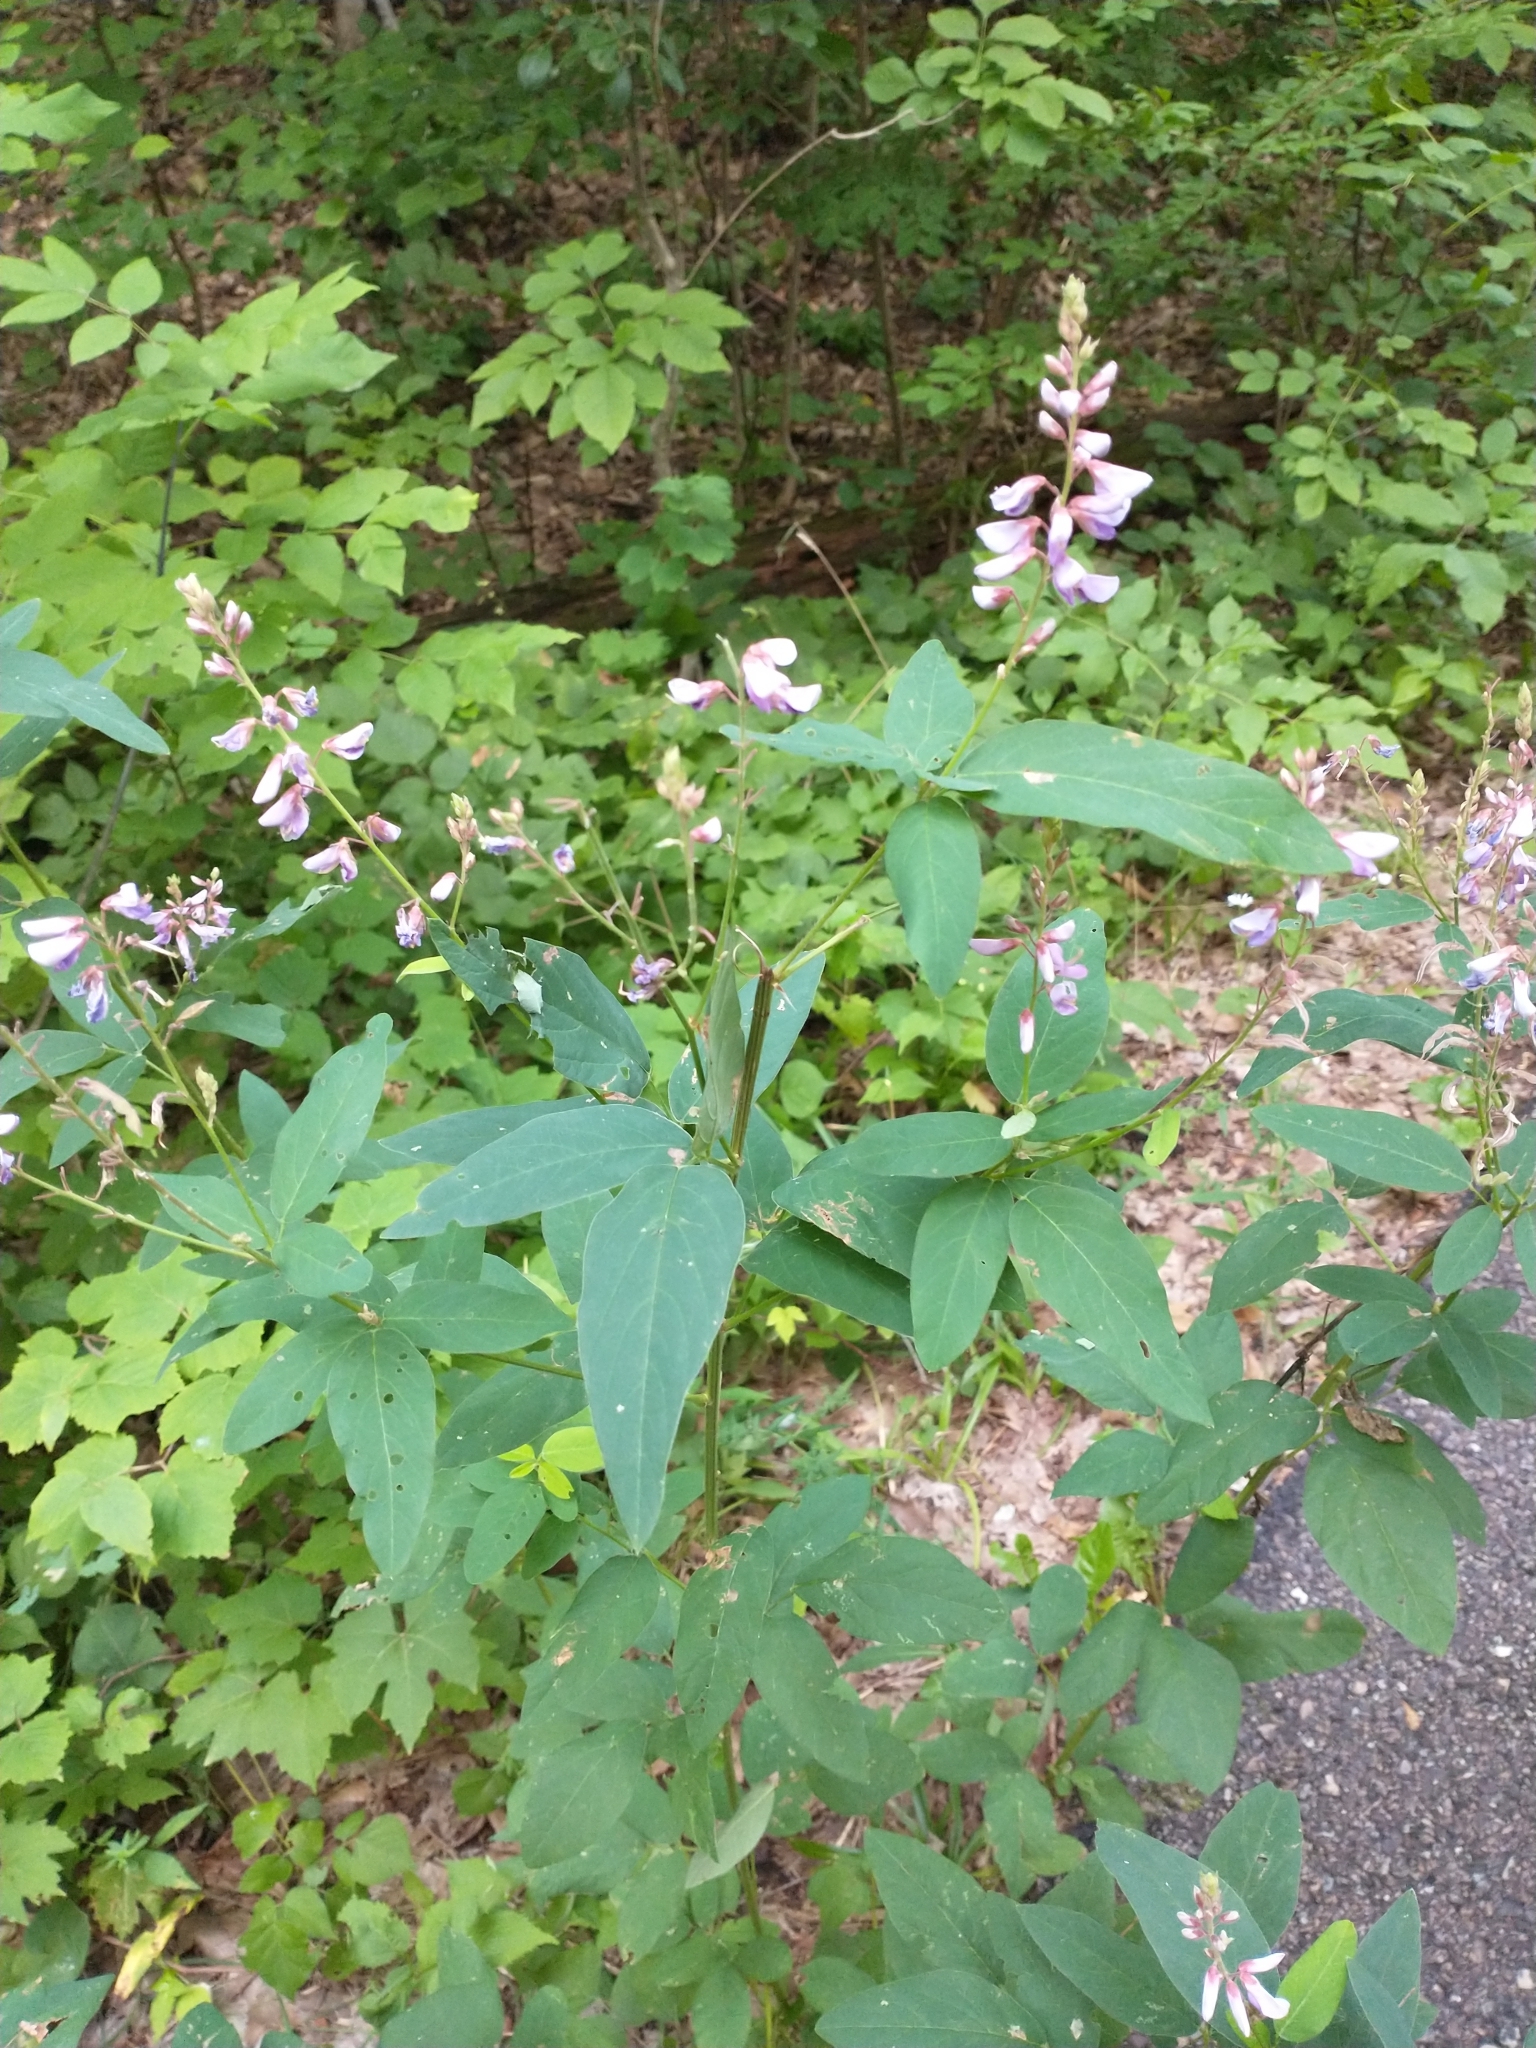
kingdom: Plantae
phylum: Tracheophyta
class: Magnoliopsida
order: Fabales
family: Fabaceae
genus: Desmodium
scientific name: Desmodium canadense
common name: Canada tick-trefoil
